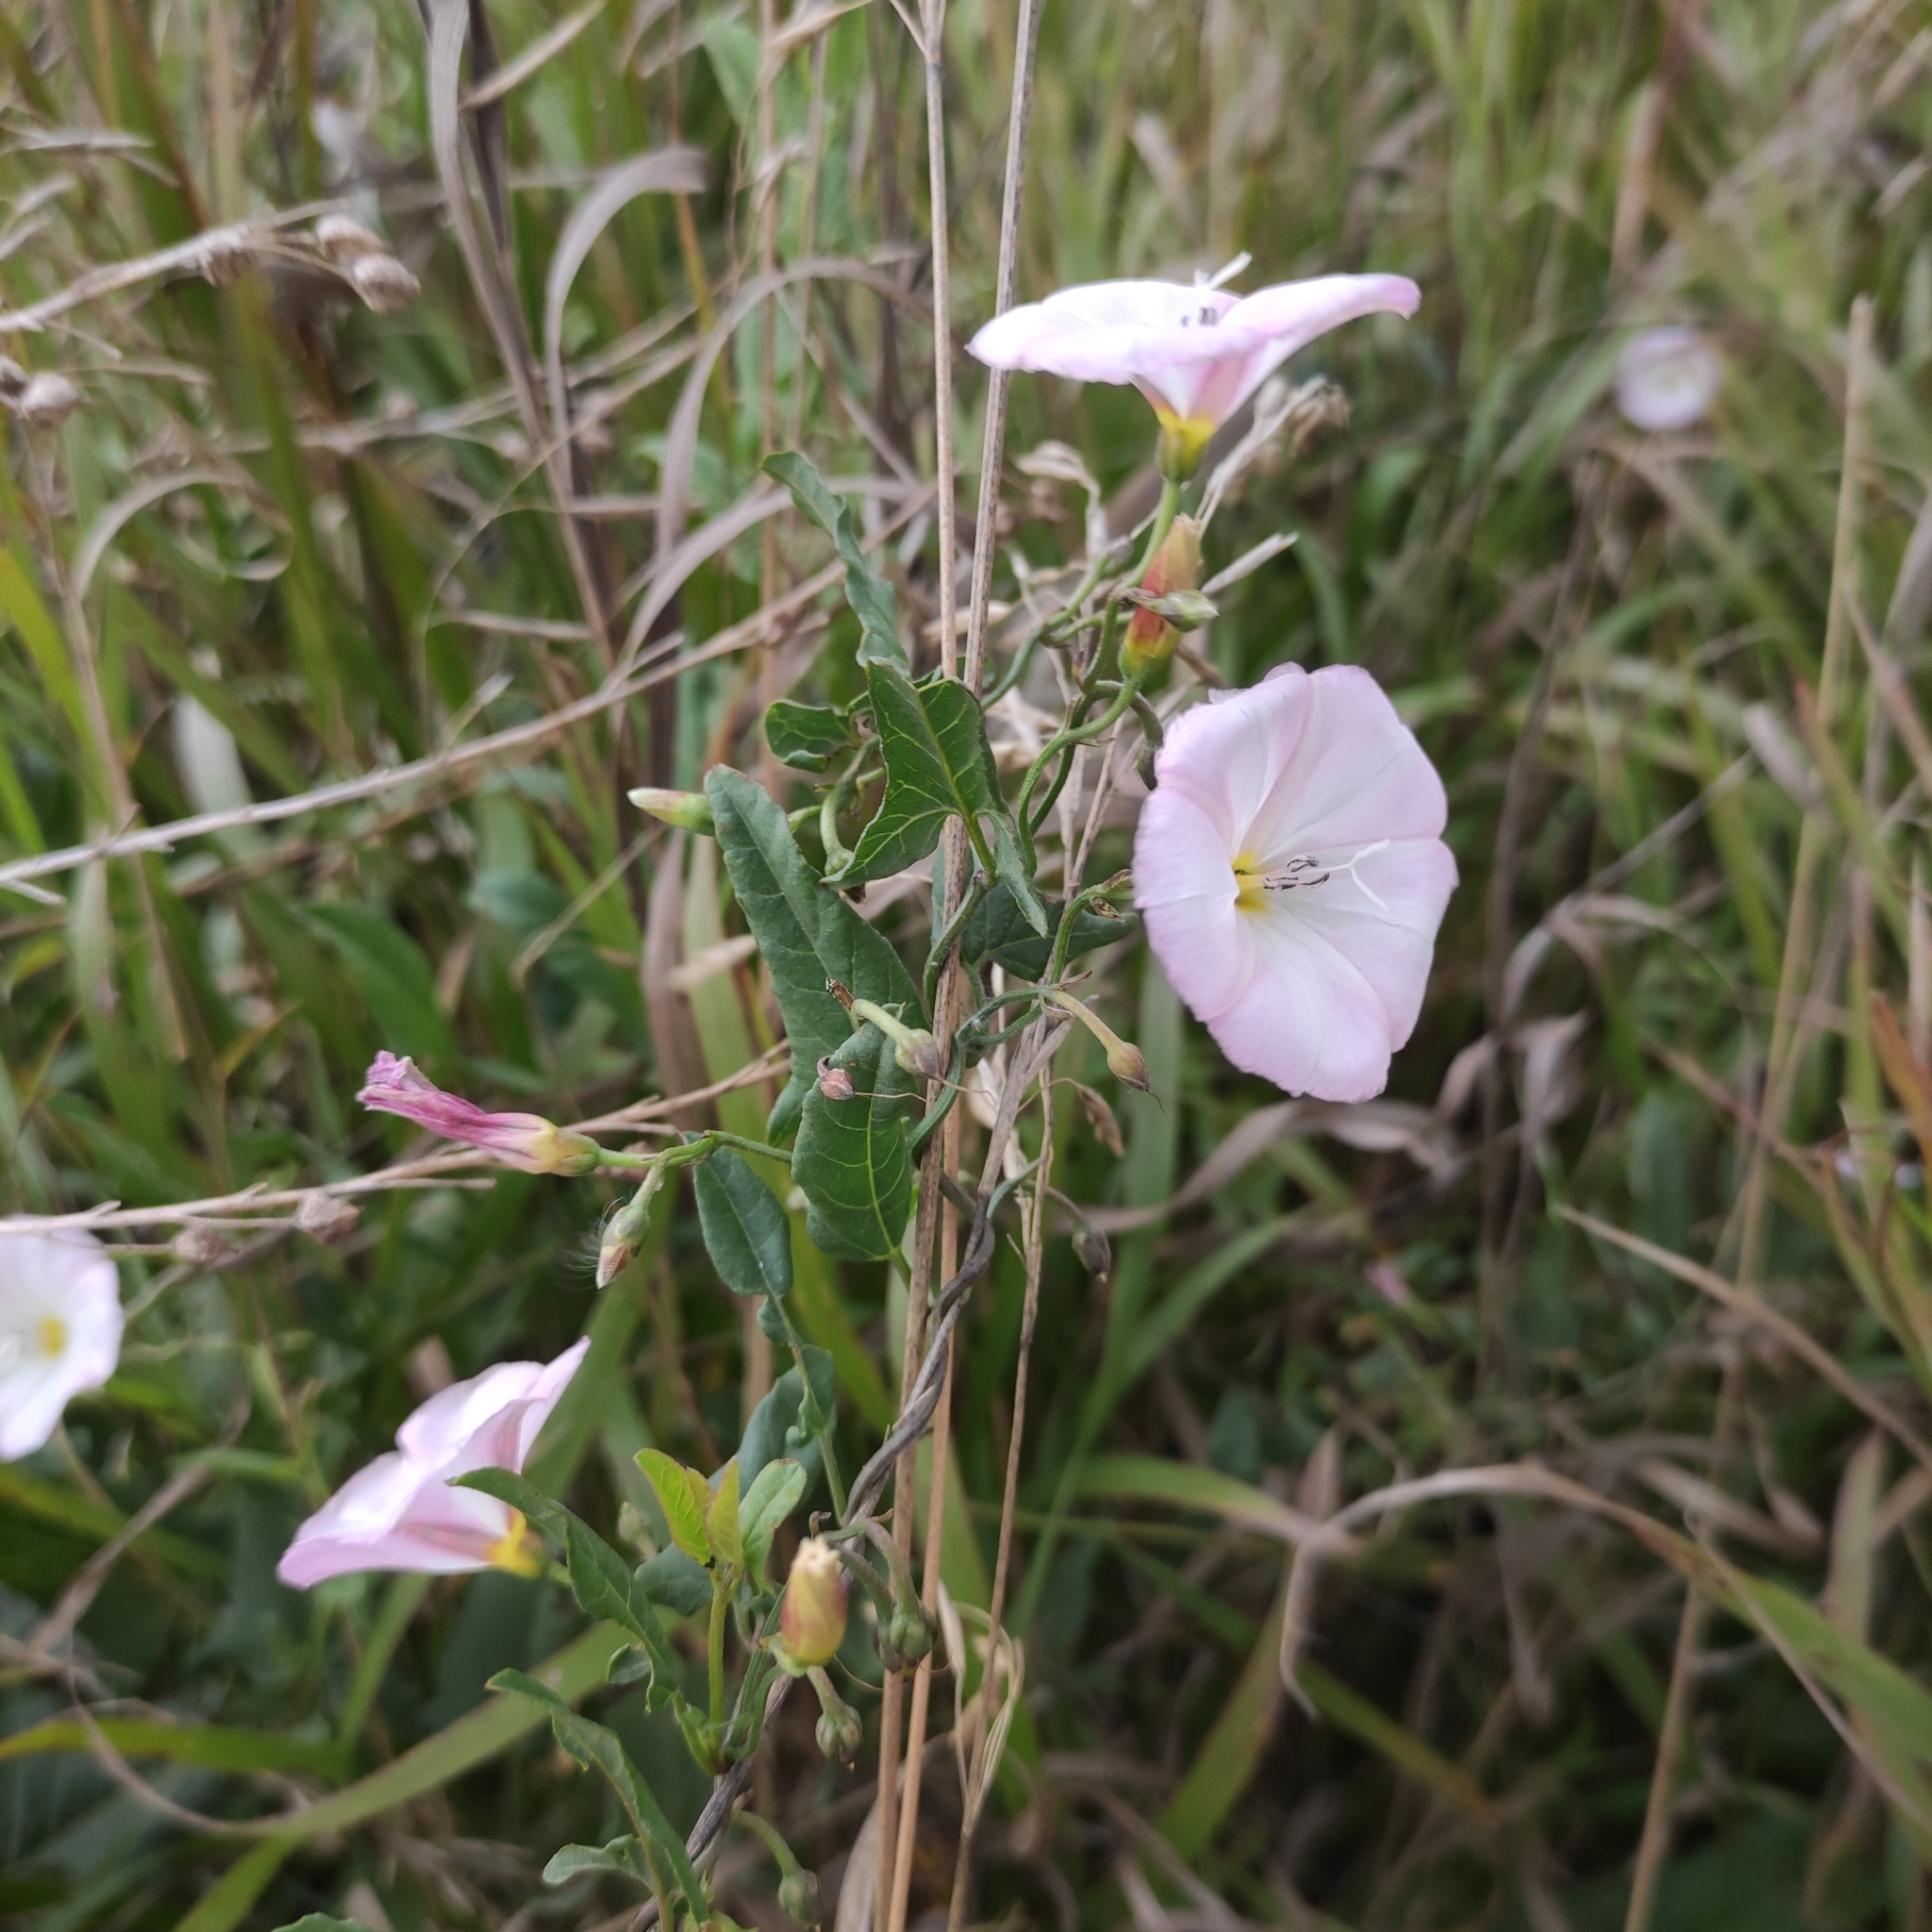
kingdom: Plantae
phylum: Tracheophyta
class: Magnoliopsida
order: Solanales
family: Convolvulaceae
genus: Convolvulus
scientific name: Convolvulus arvensis
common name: Field bindweed
